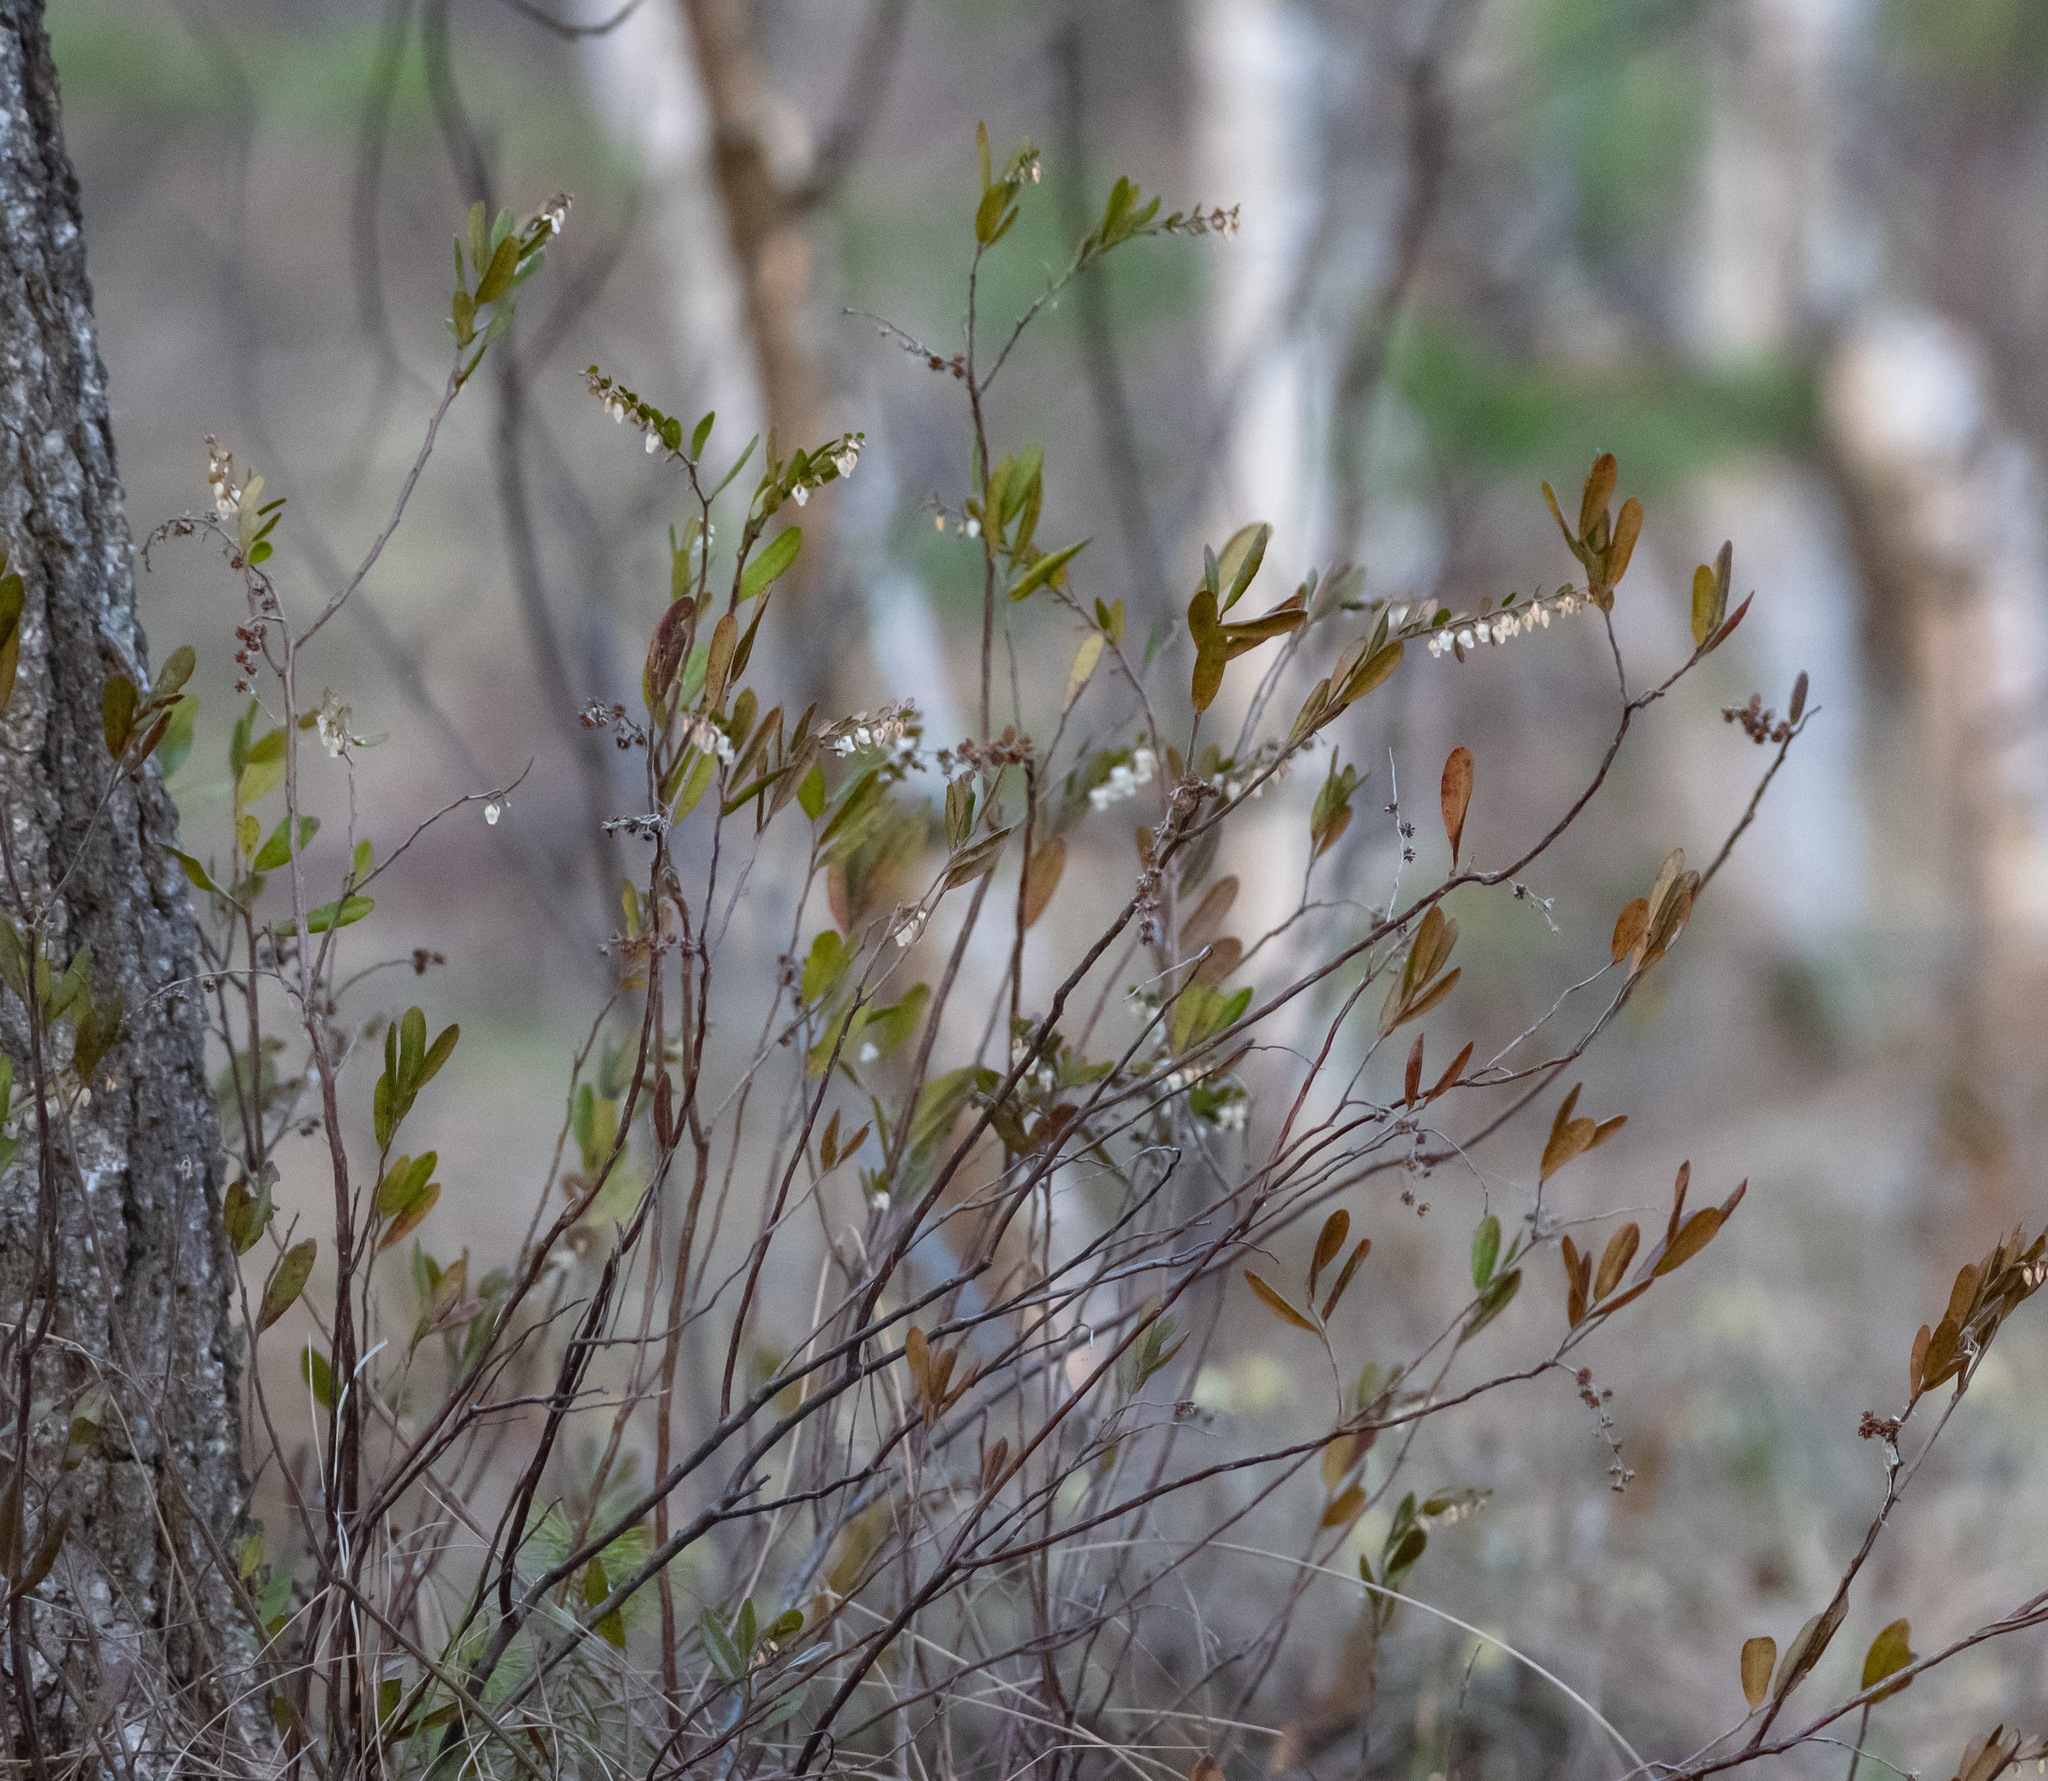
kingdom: Plantae
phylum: Tracheophyta
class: Magnoliopsida
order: Ericales
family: Ericaceae
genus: Chamaedaphne
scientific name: Chamaedaphne calyculata
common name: Leatherleaf
